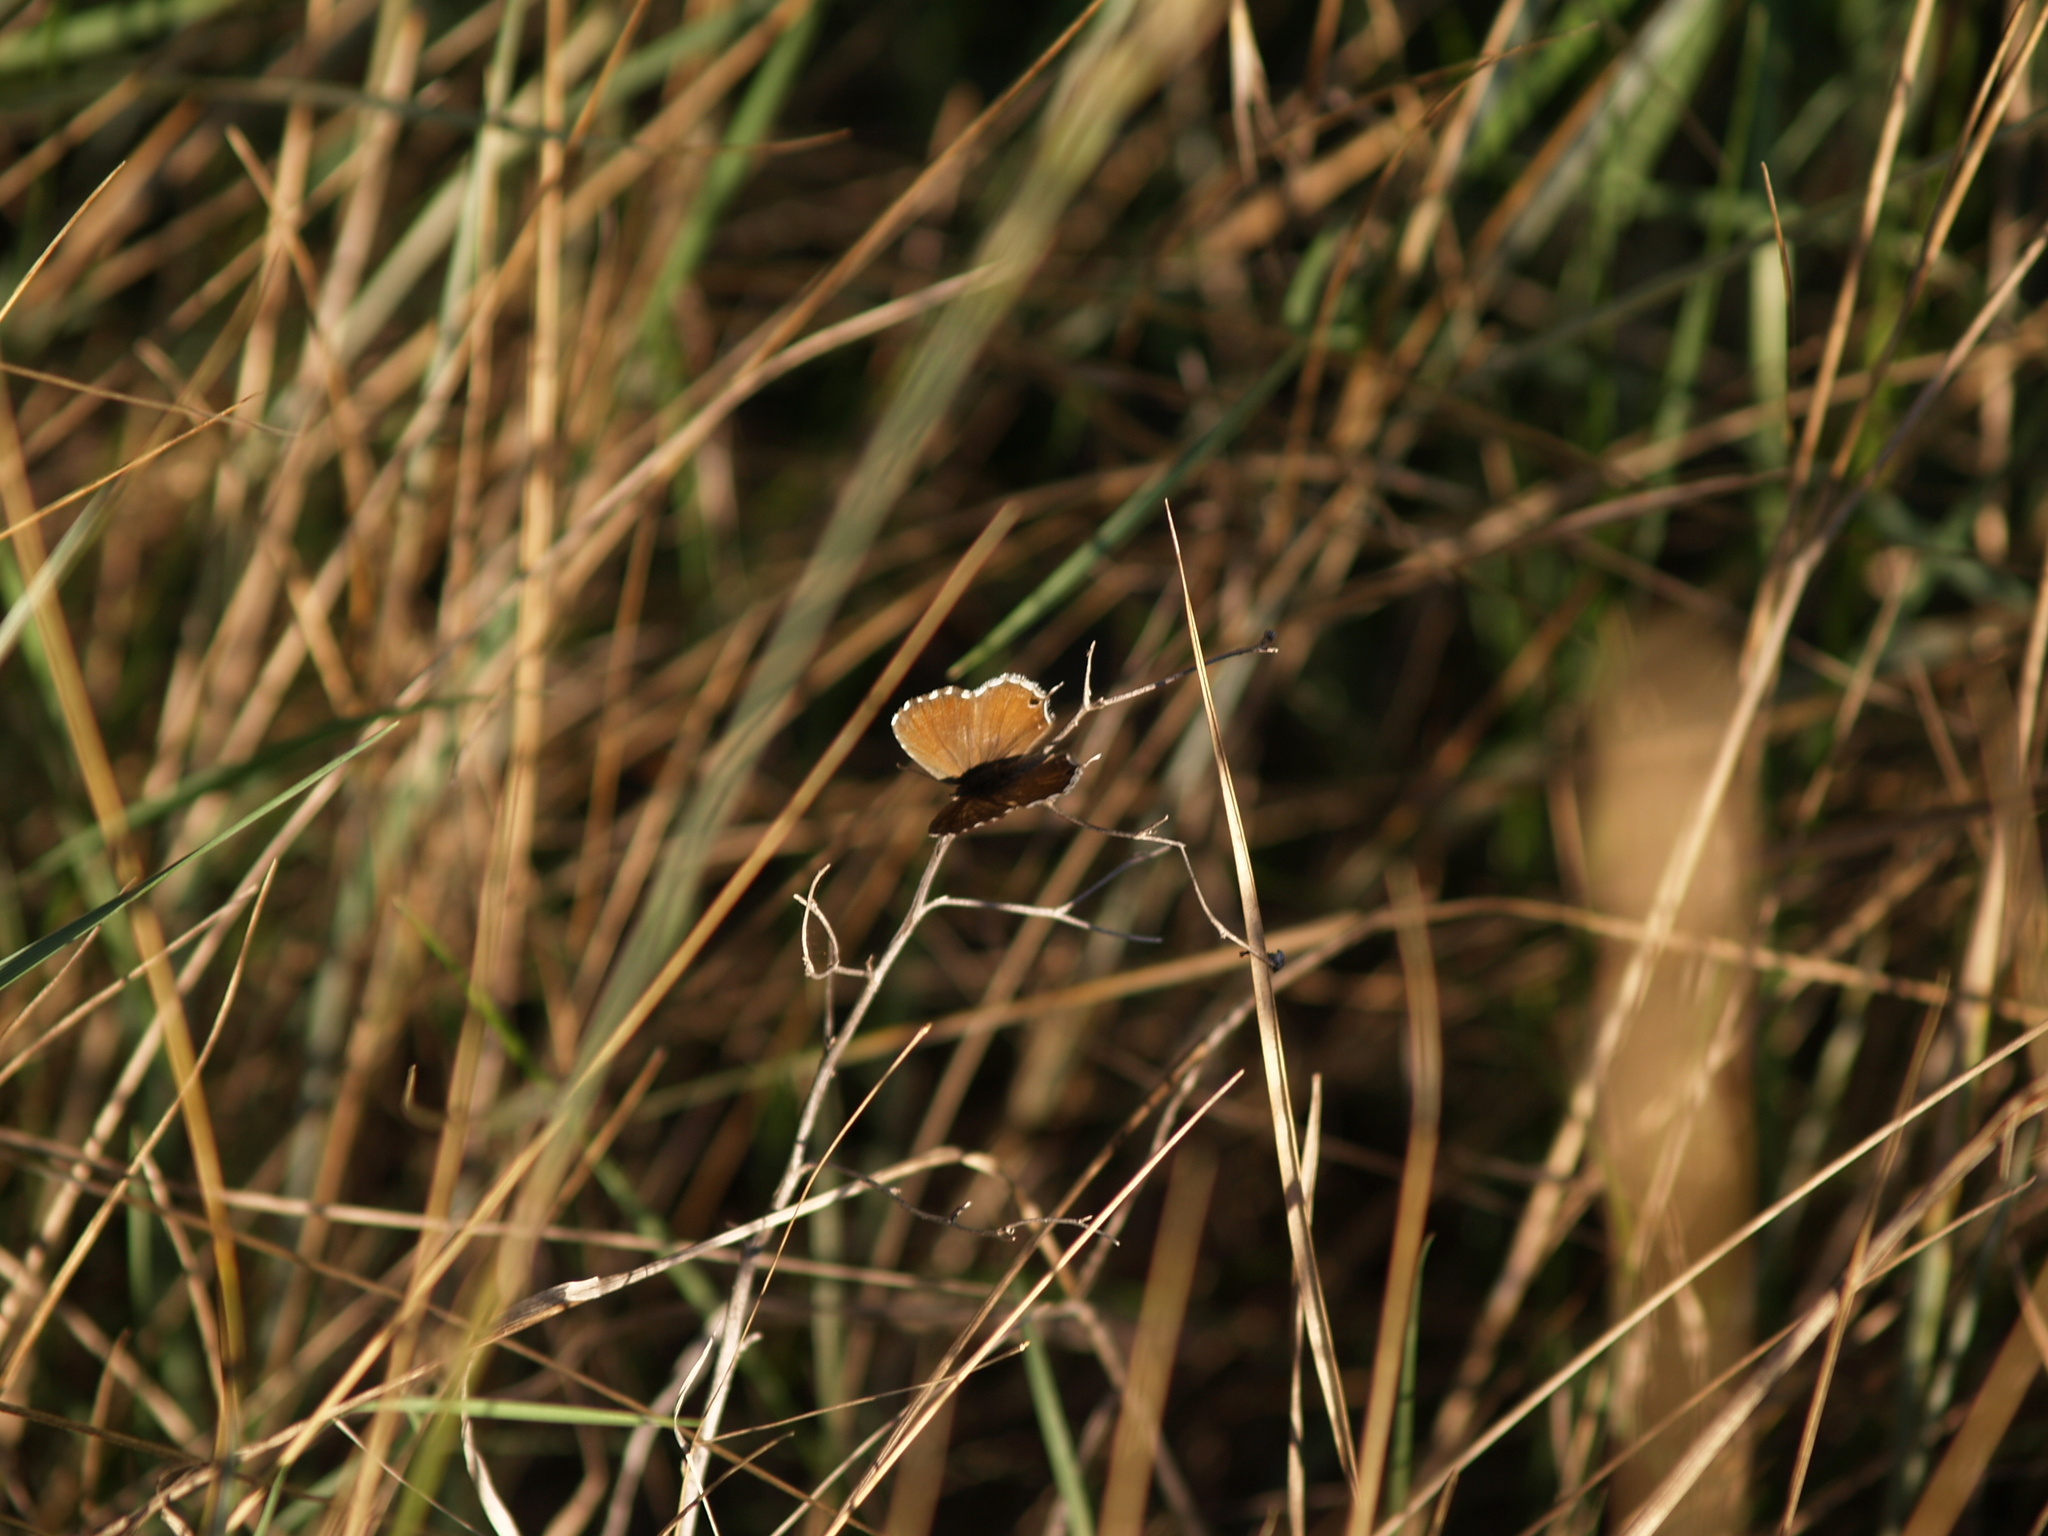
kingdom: Animalia
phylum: Arthropoda
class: Insecta
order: Lepidoptera
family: Lycaenidae
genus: Cacyreus
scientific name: Cacyreus marshalli
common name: Geranium bronze
